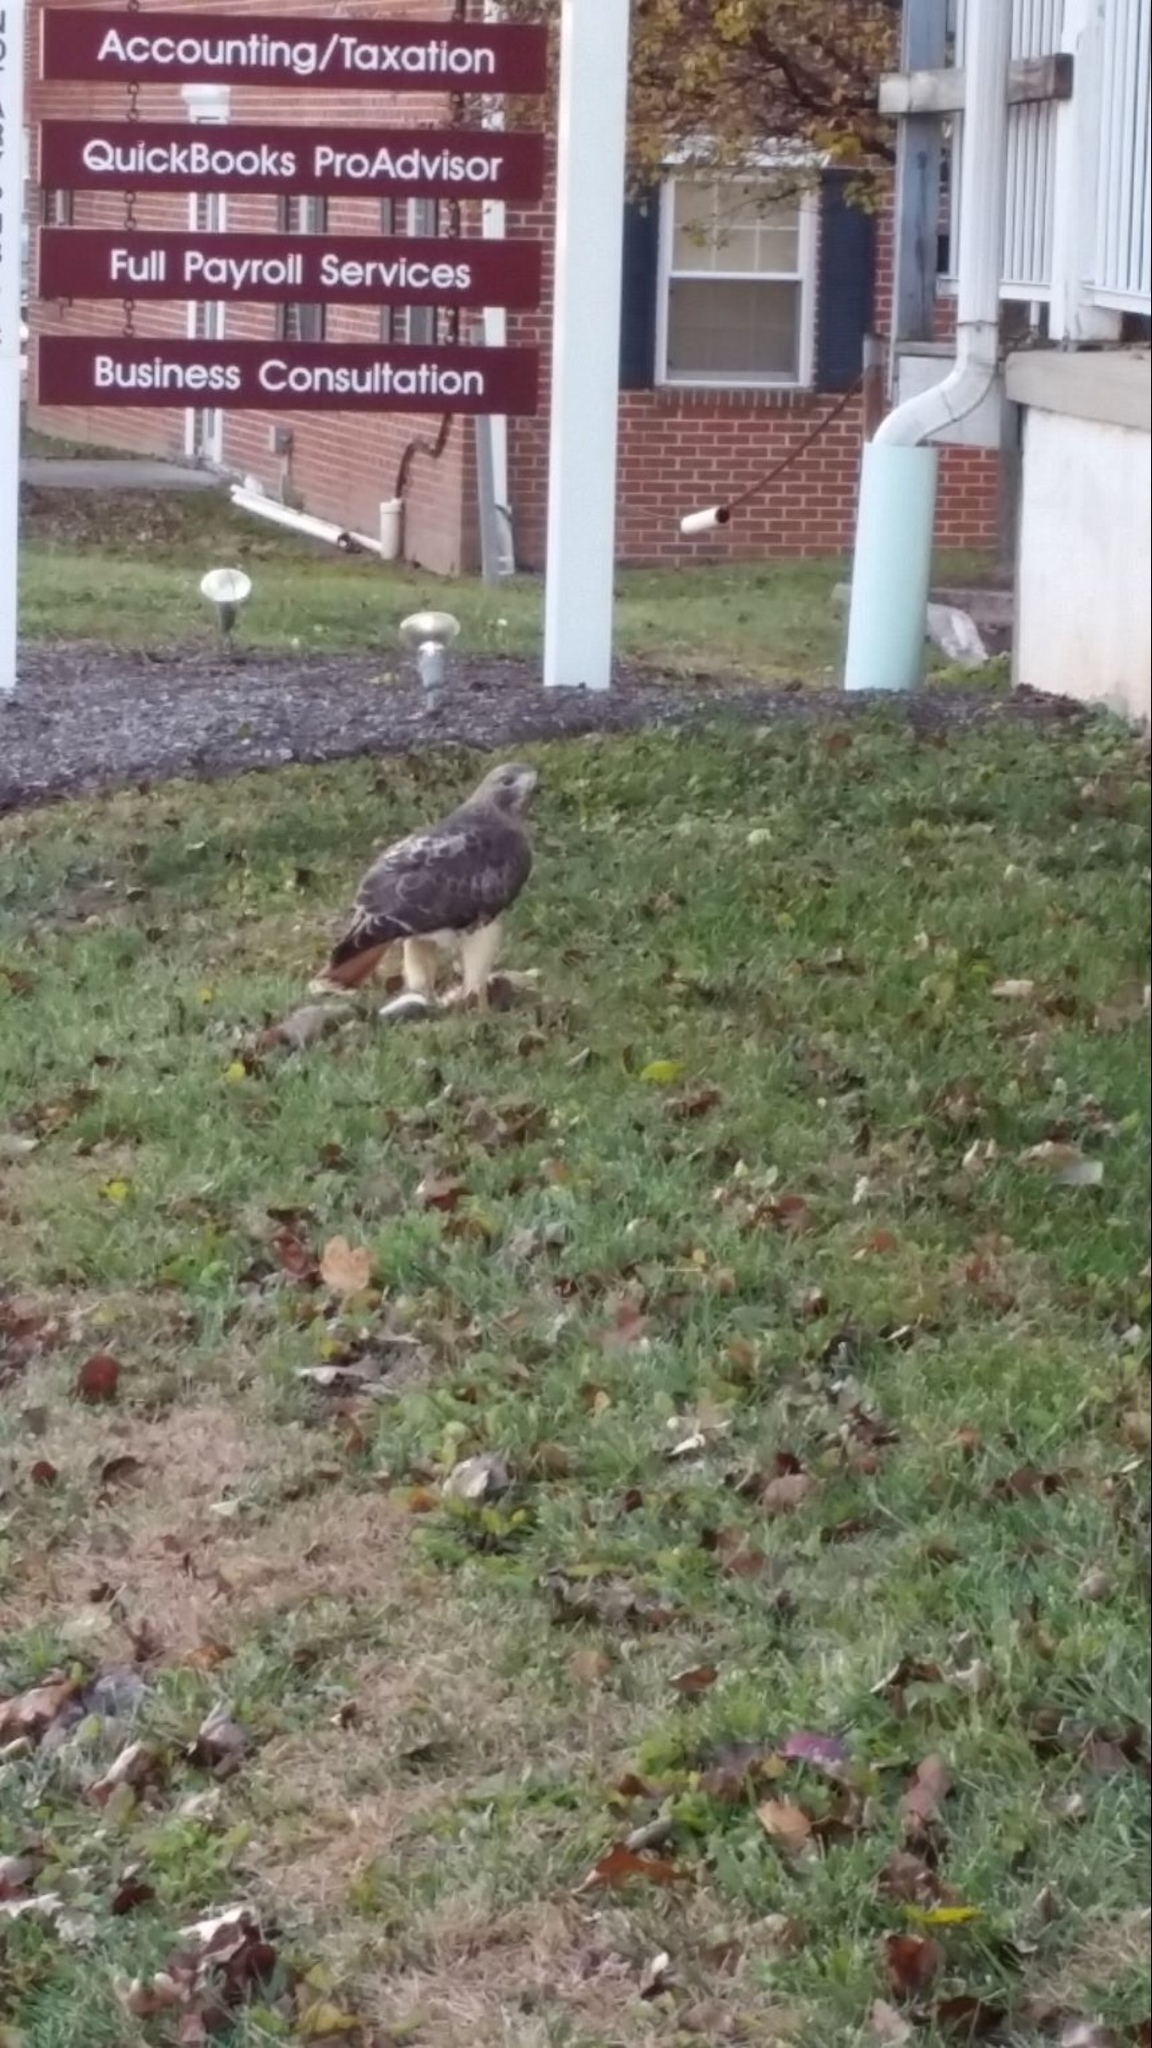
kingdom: Animalia
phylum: Chordata
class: Aves
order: Accipitriformes
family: Accipitridae
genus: Buteo
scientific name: Buteo jamaicensis
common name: Red-tailed hawk
